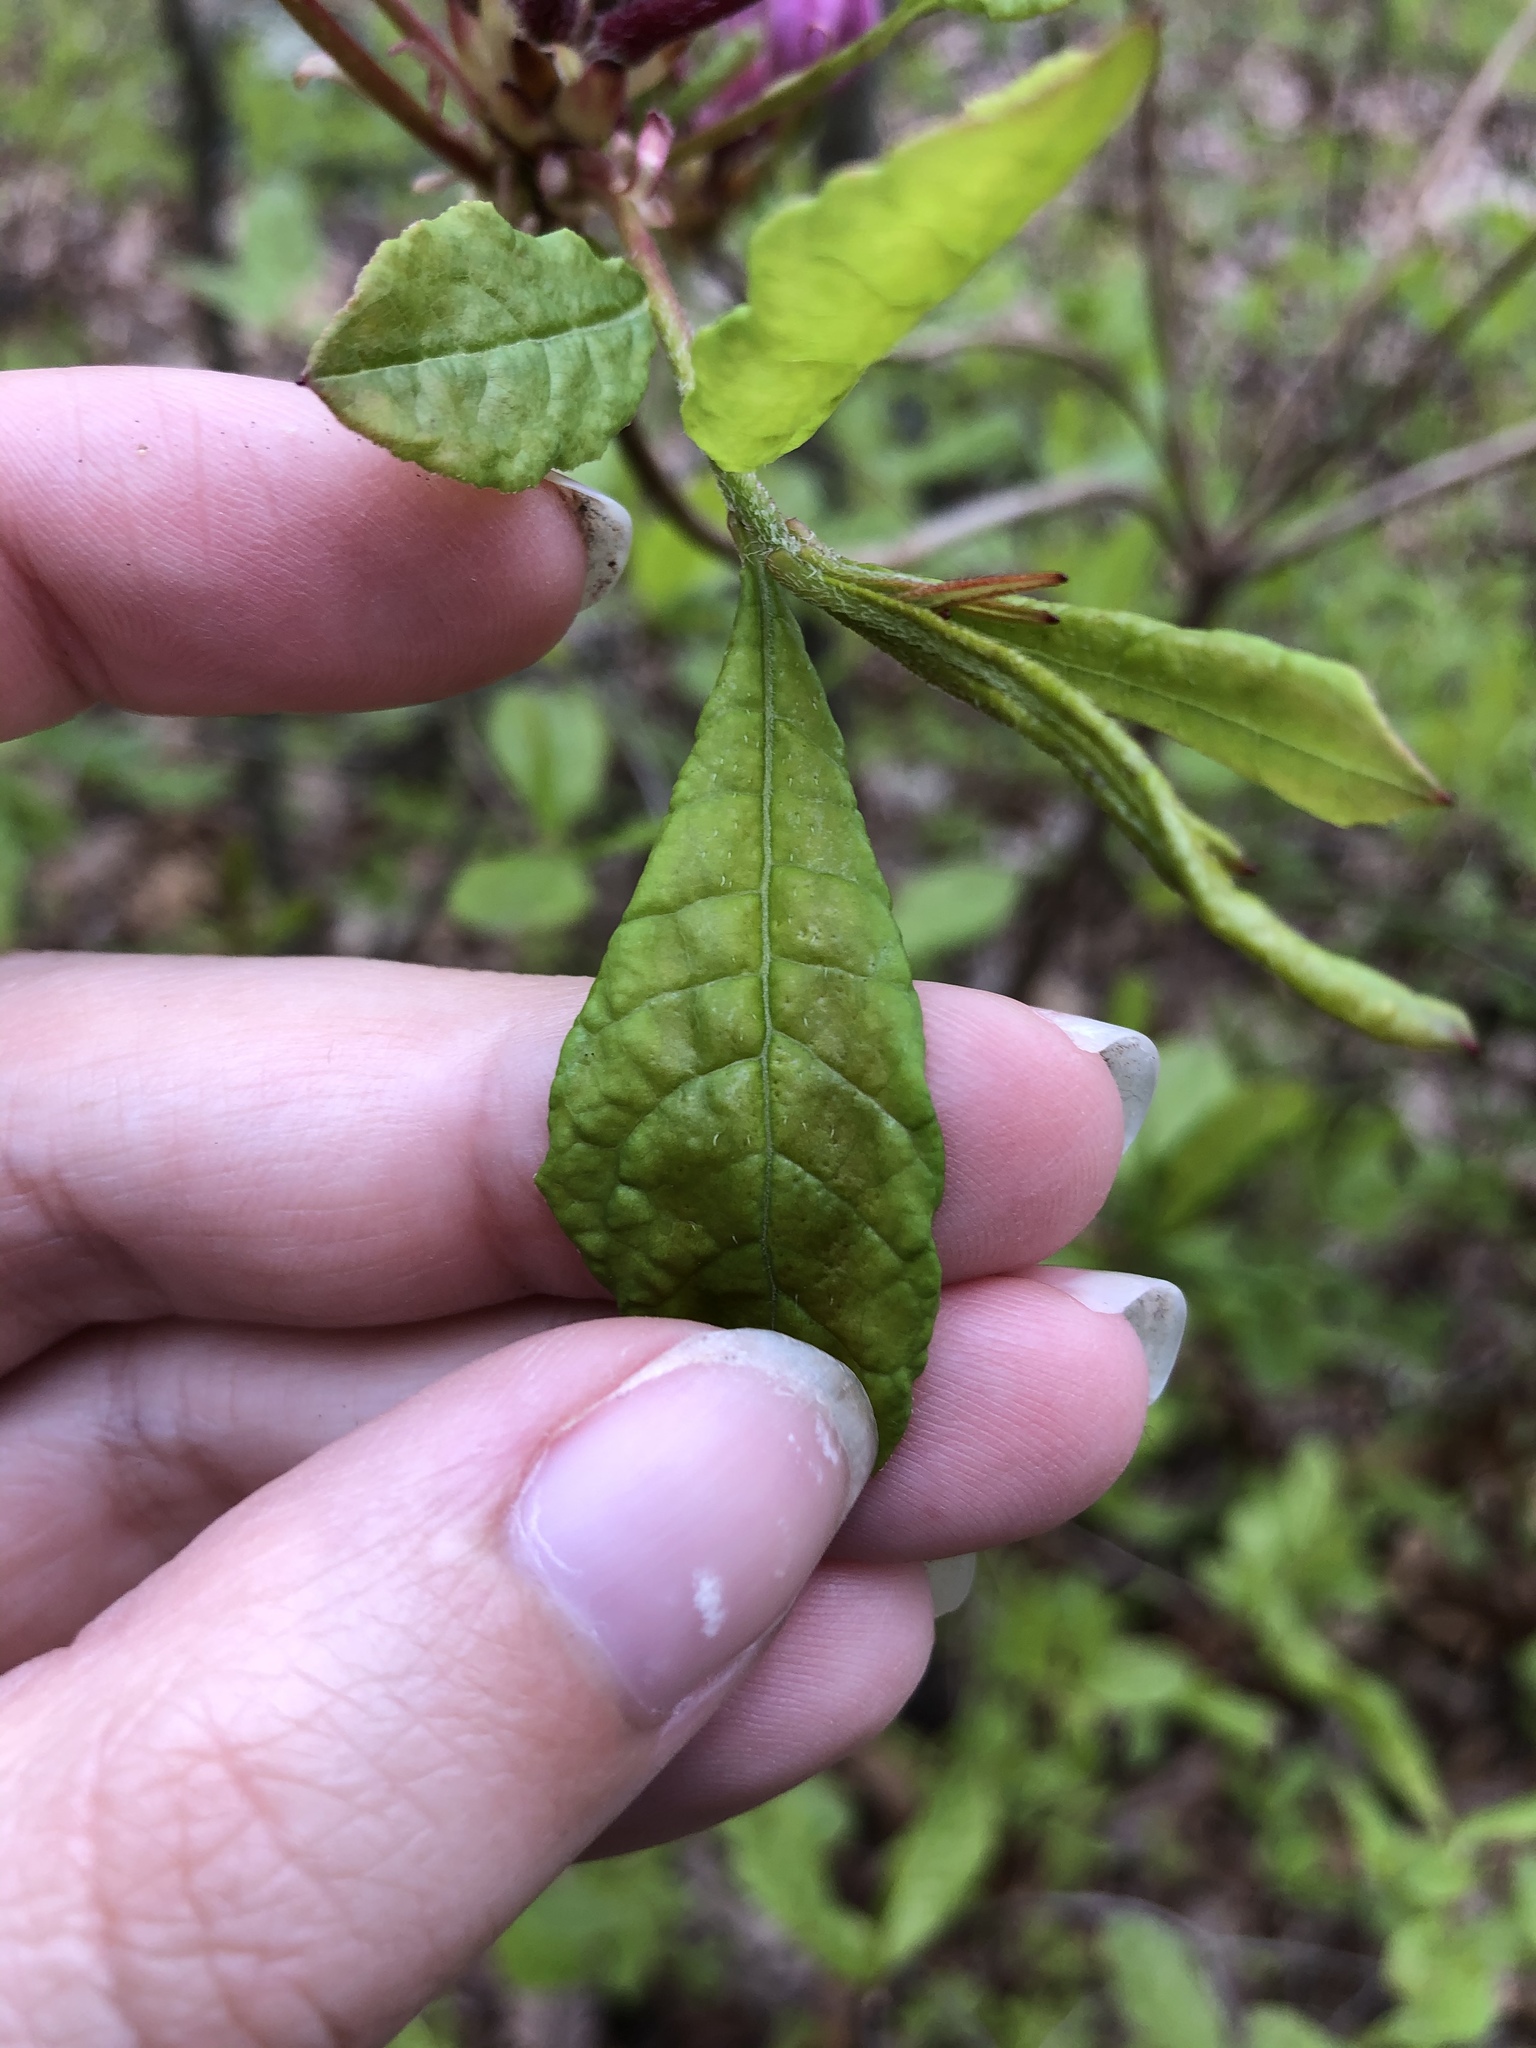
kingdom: Plantae
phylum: Tracheophyta
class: Magnoliopsida
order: Ericales
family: Ericaceae
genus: Rhododendron
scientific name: Rhododendron periclymenoides
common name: Election-pink
